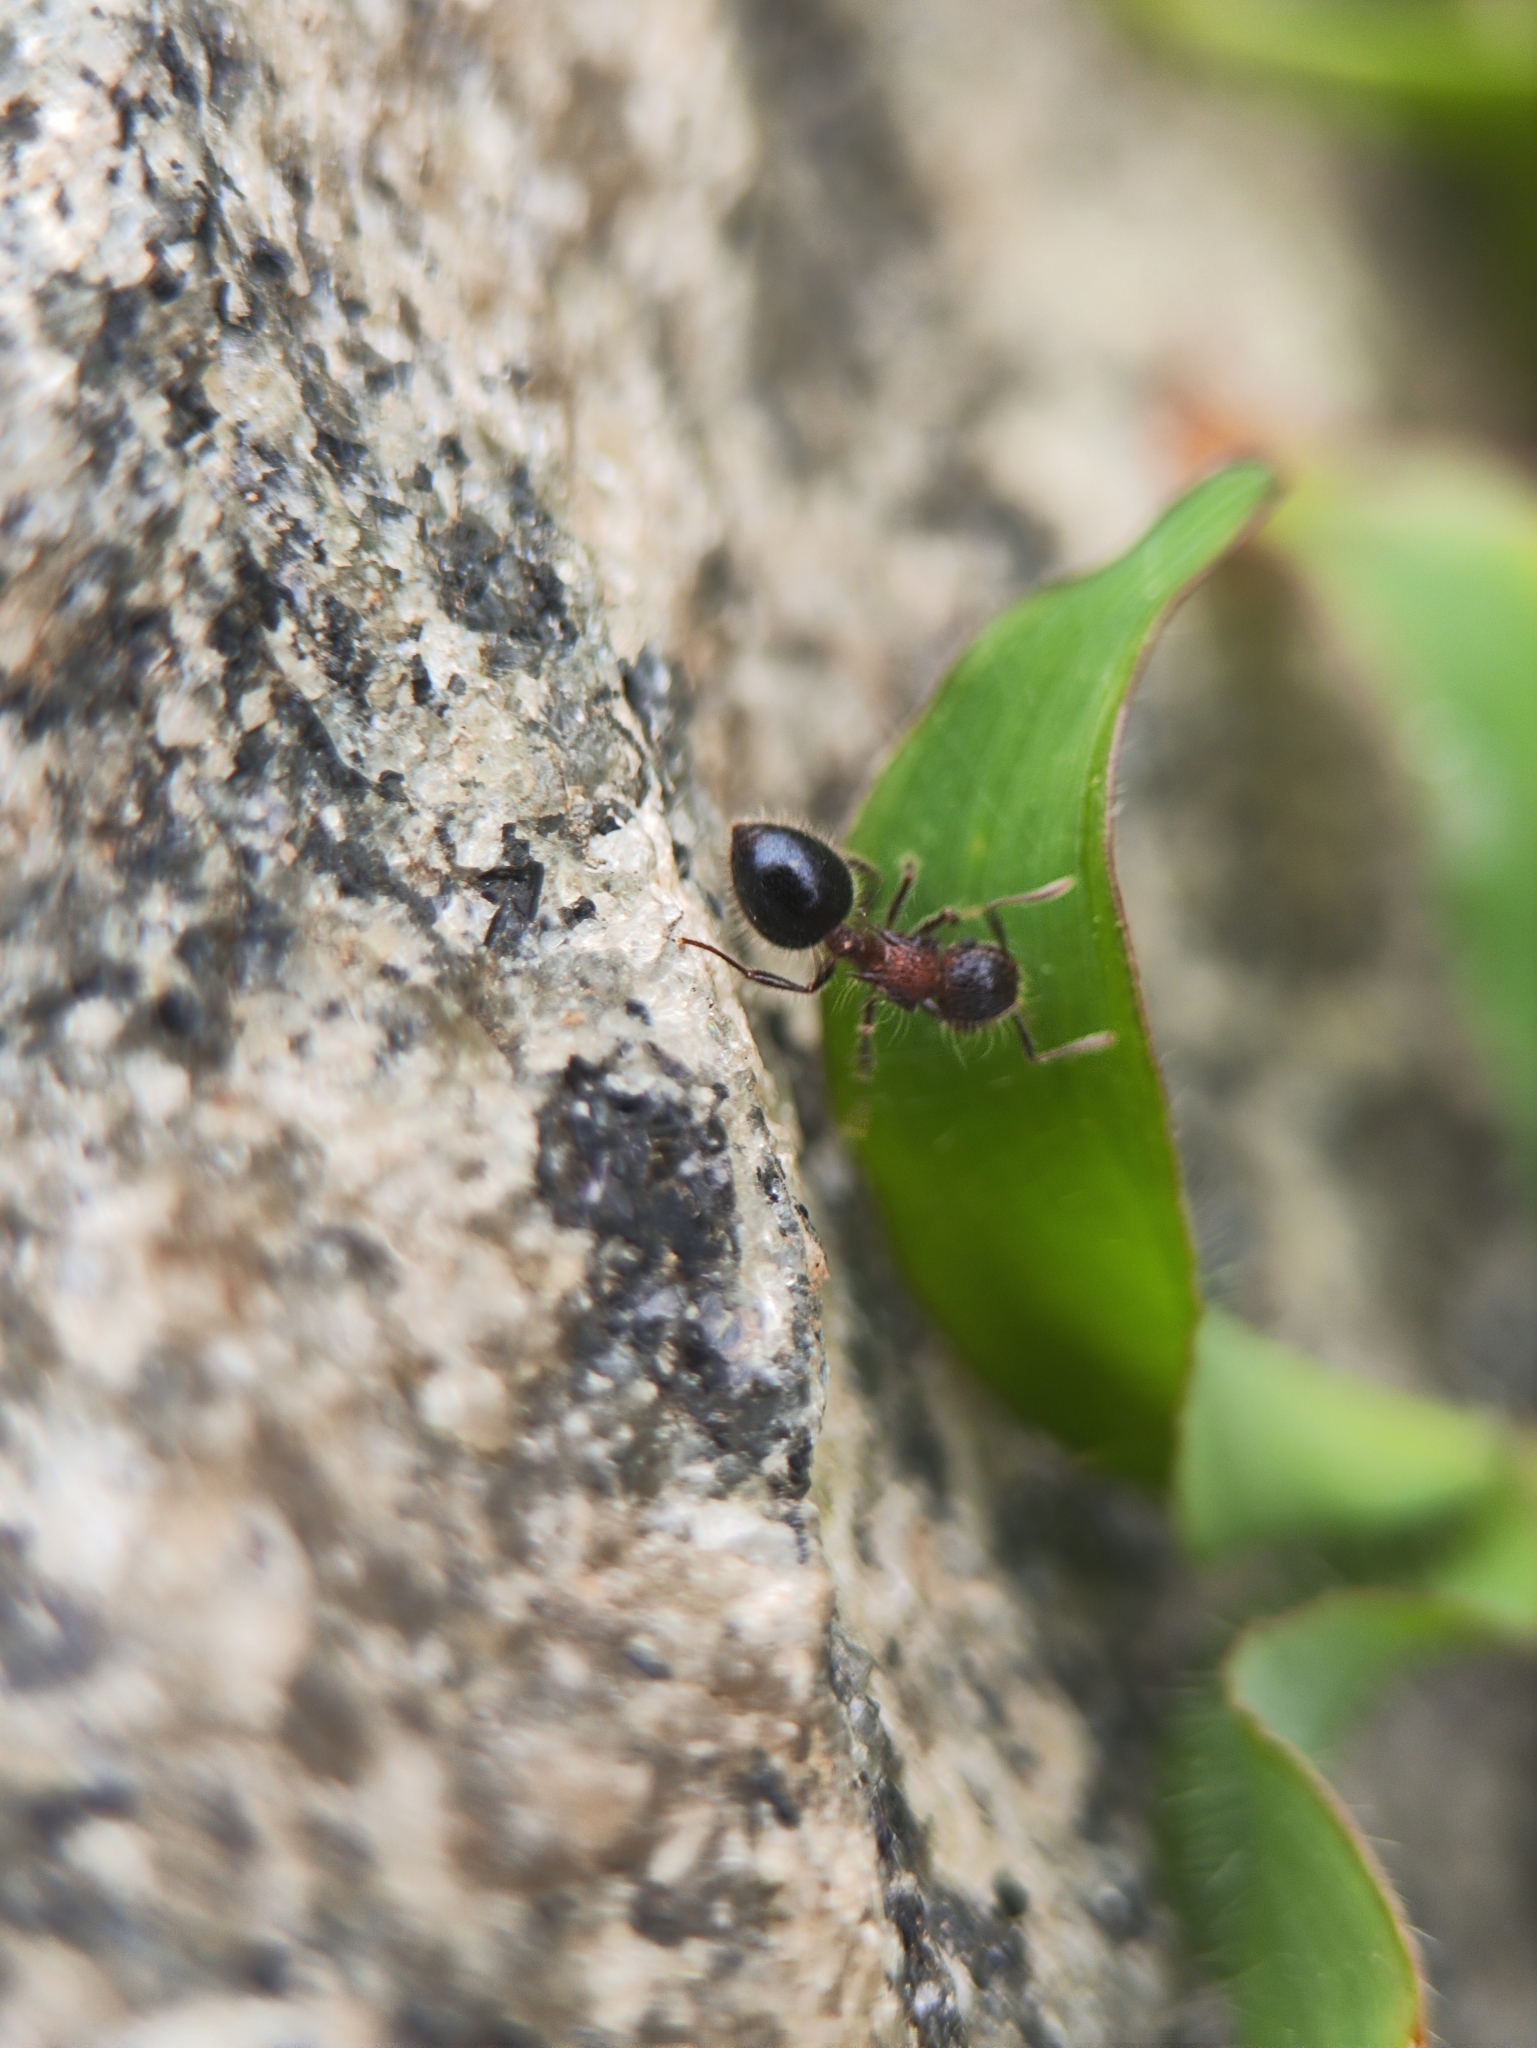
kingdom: Animalia
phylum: Arthropoda
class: Insecta
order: Hymenoptera
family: Formicidae
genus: Meranoplus
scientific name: Meranoplus bicolor
